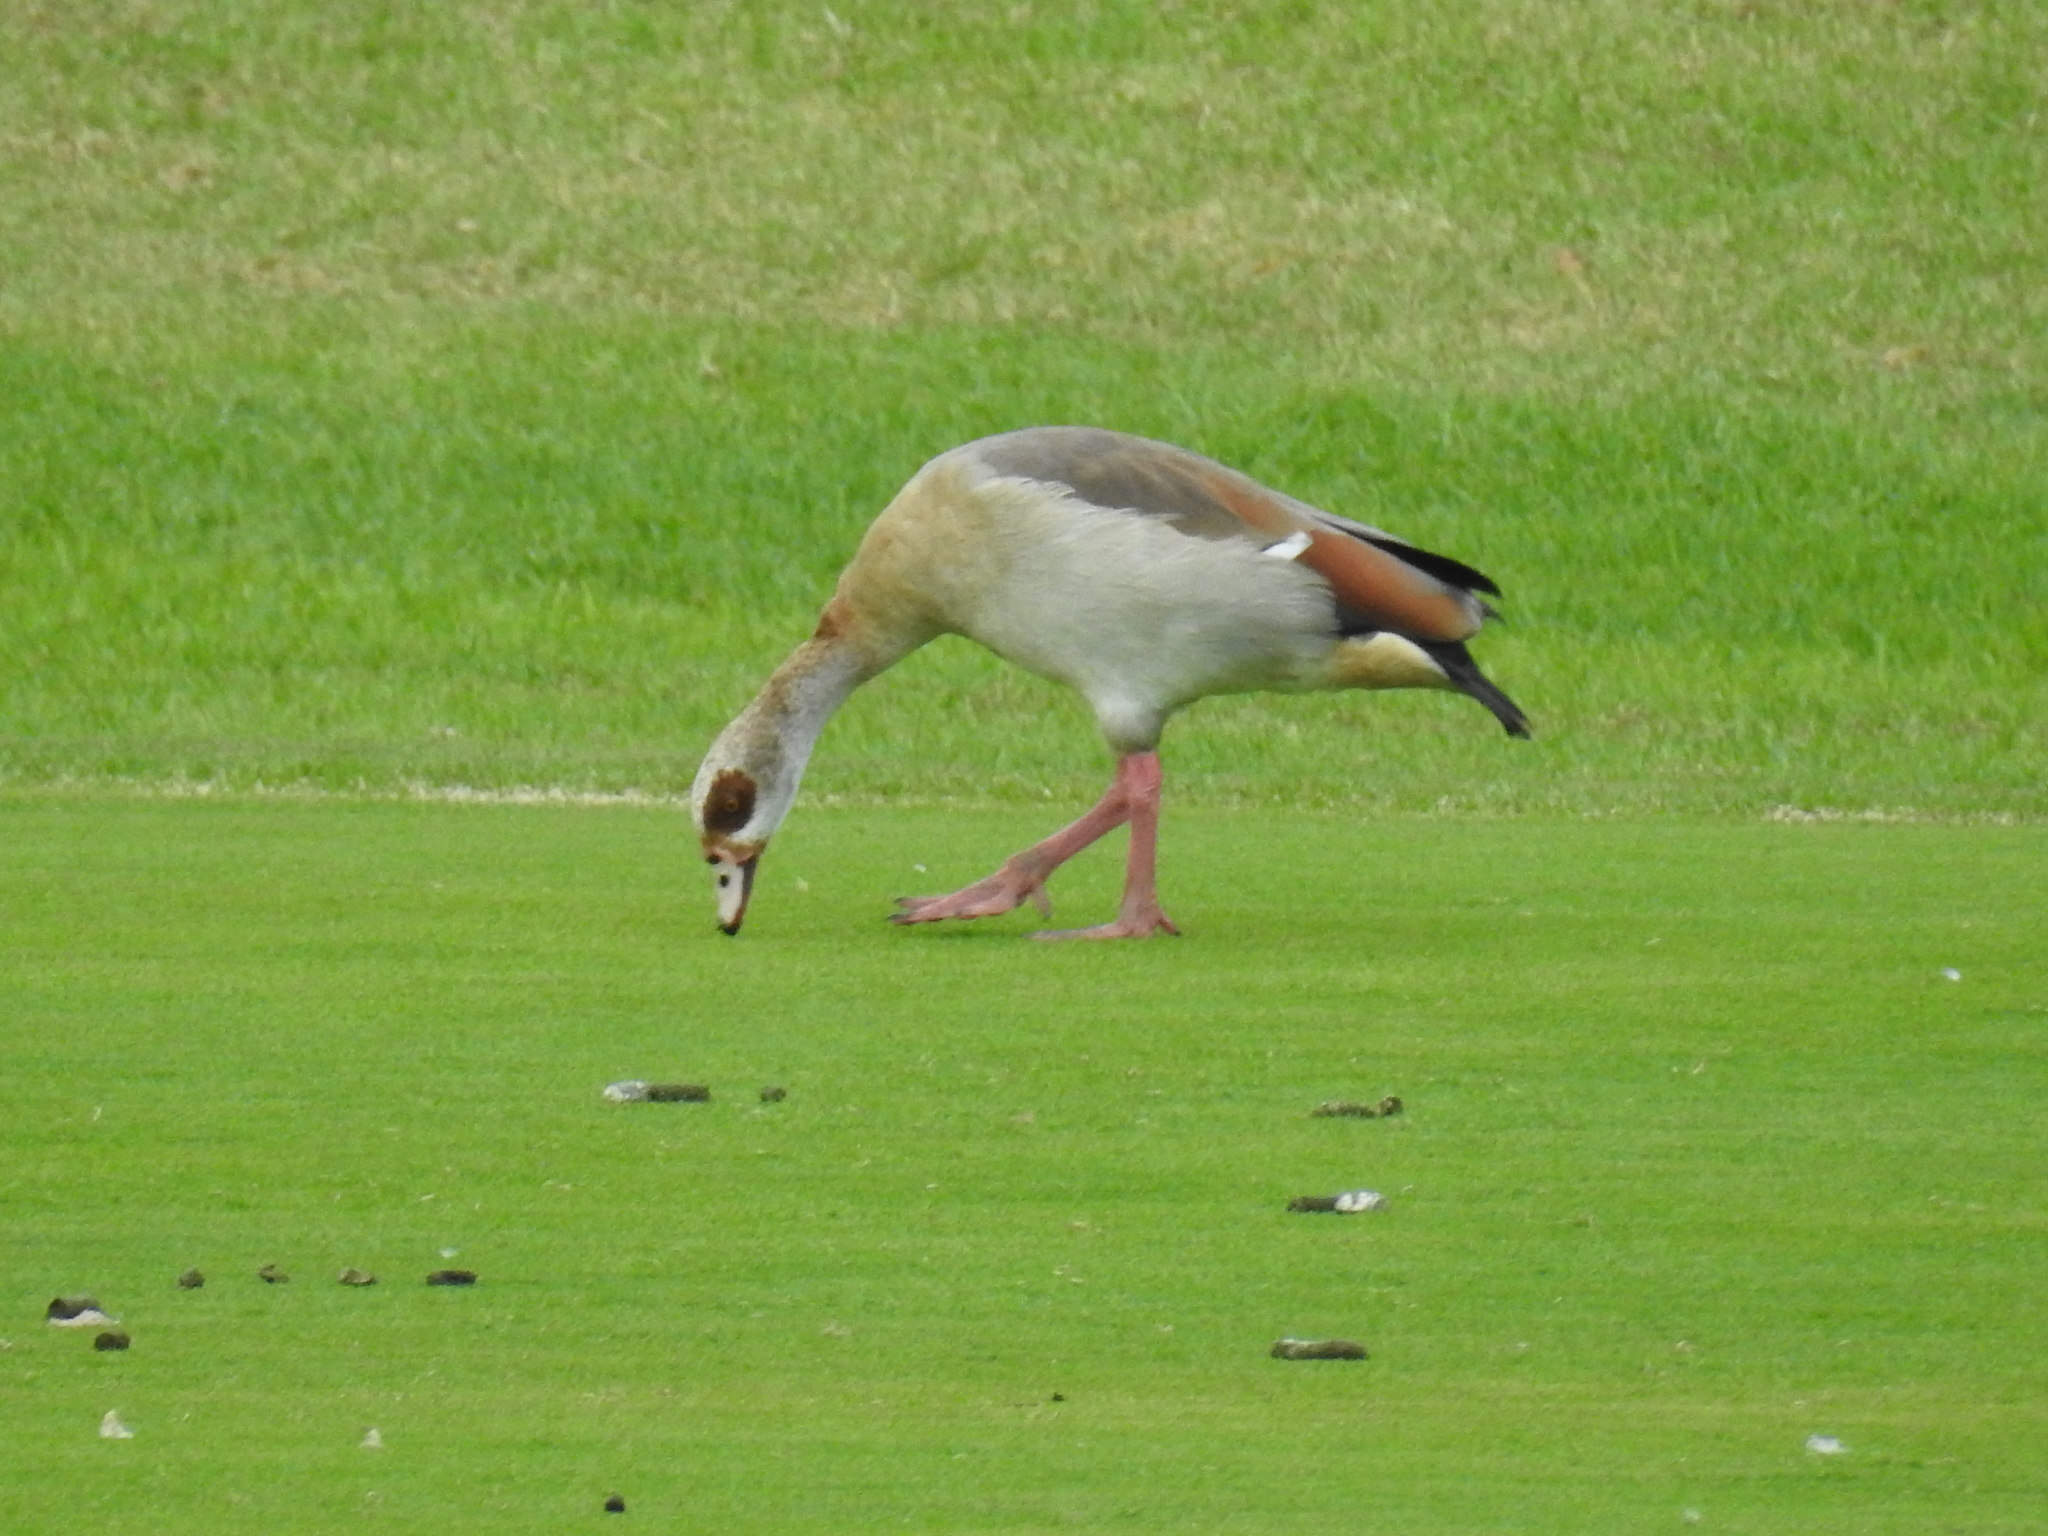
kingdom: Animalia
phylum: Chordata
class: Aves
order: Anseriformes
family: Anatidae
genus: Alopochen
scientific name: Alopochen aegyptiaca
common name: Egyptian goose
